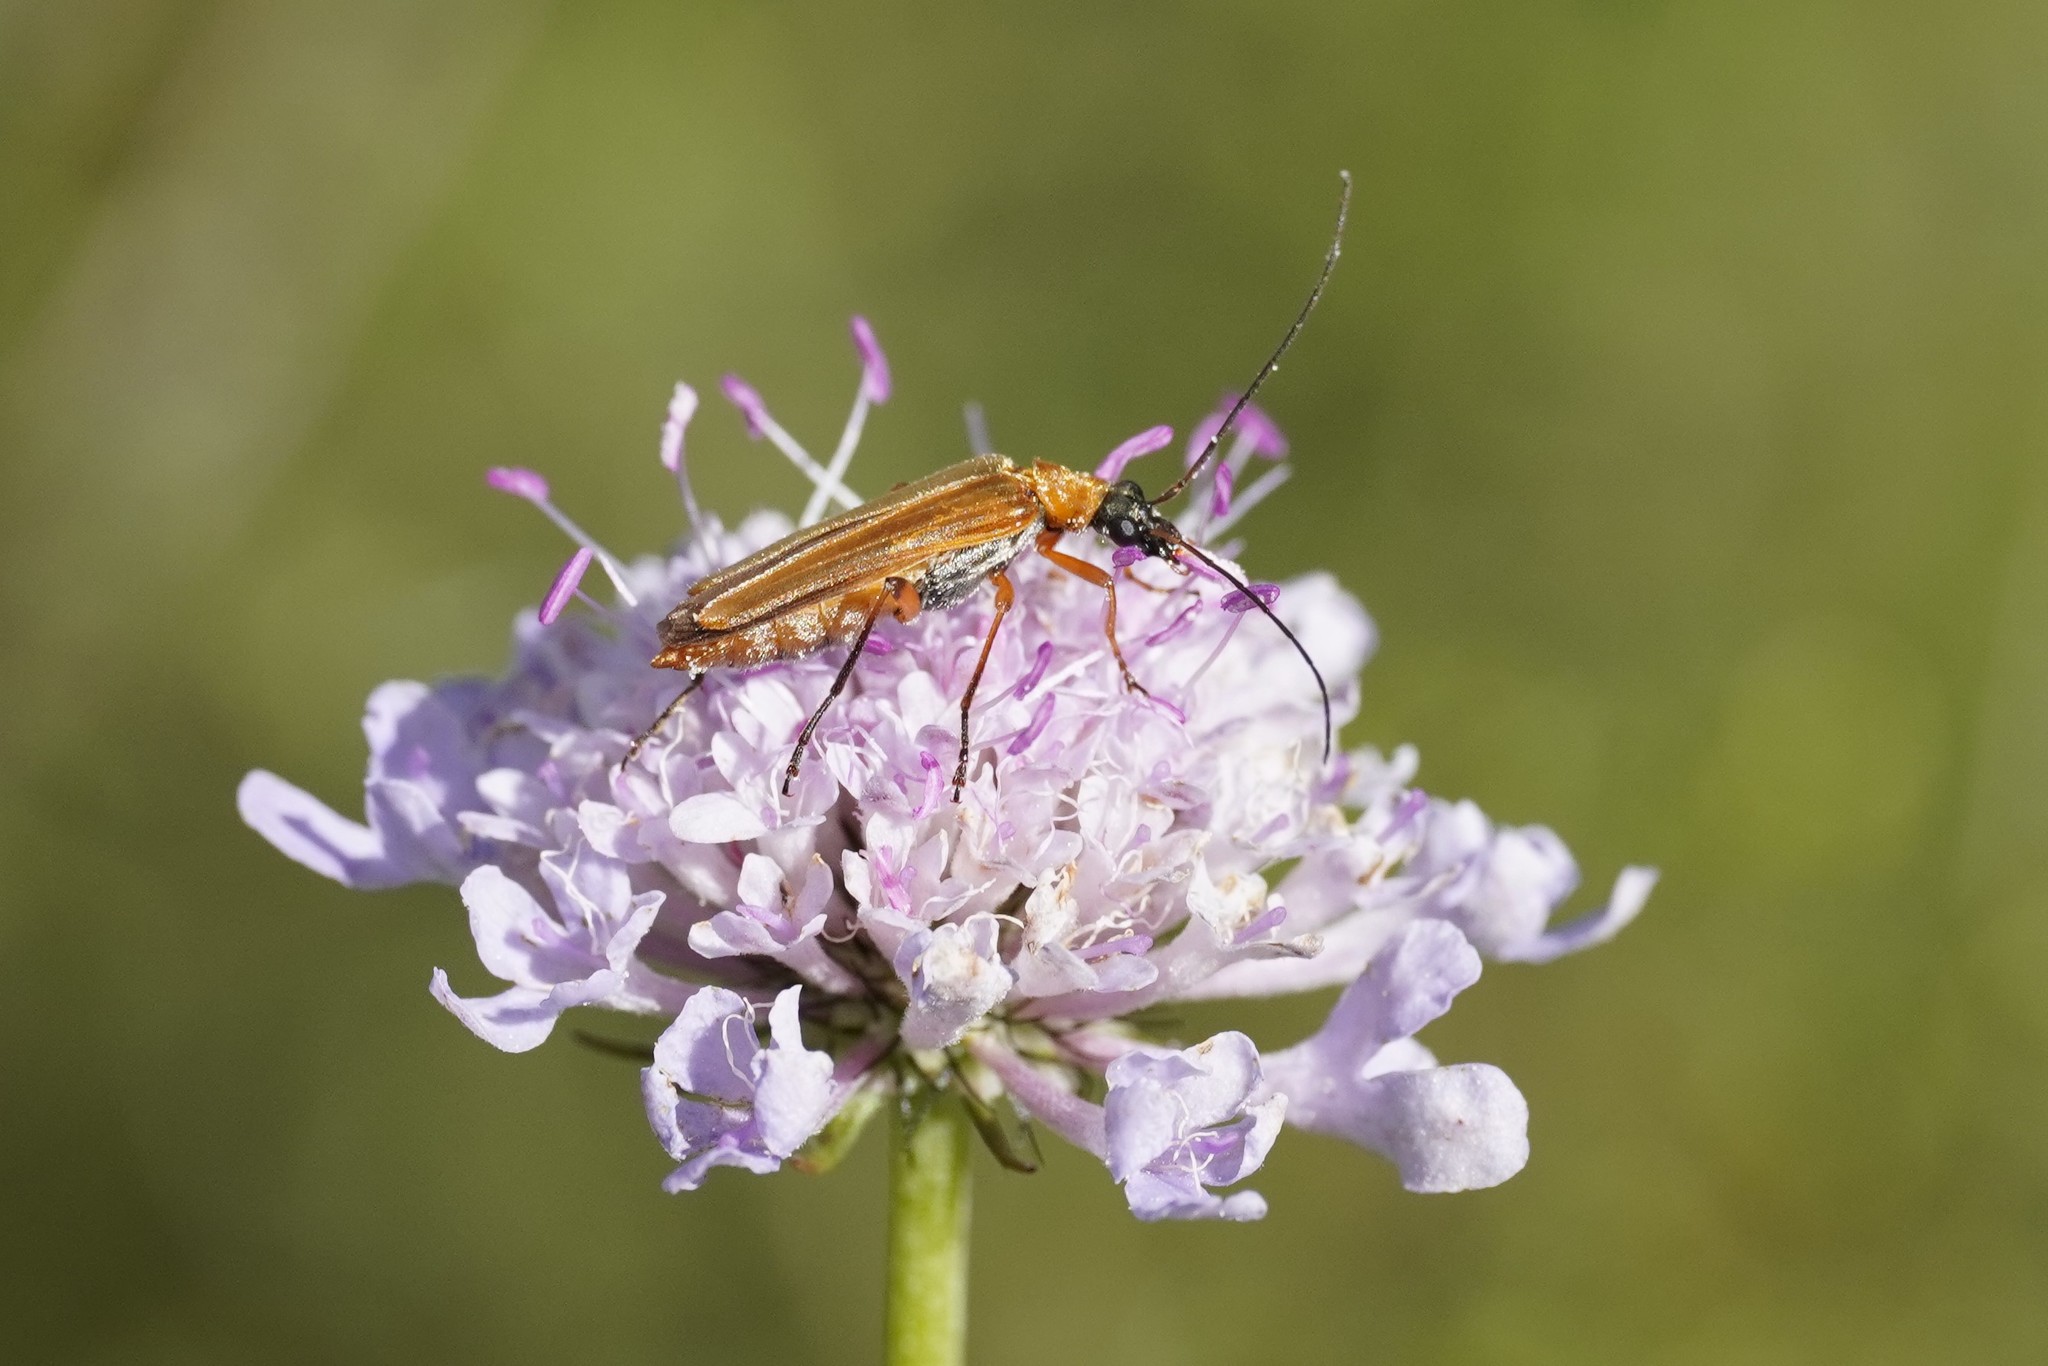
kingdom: Animalia
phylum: Arthropoda
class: Insecta
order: Coleoptera
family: Oedemeridae
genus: Oedemera
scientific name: Oedemera podagrariae
